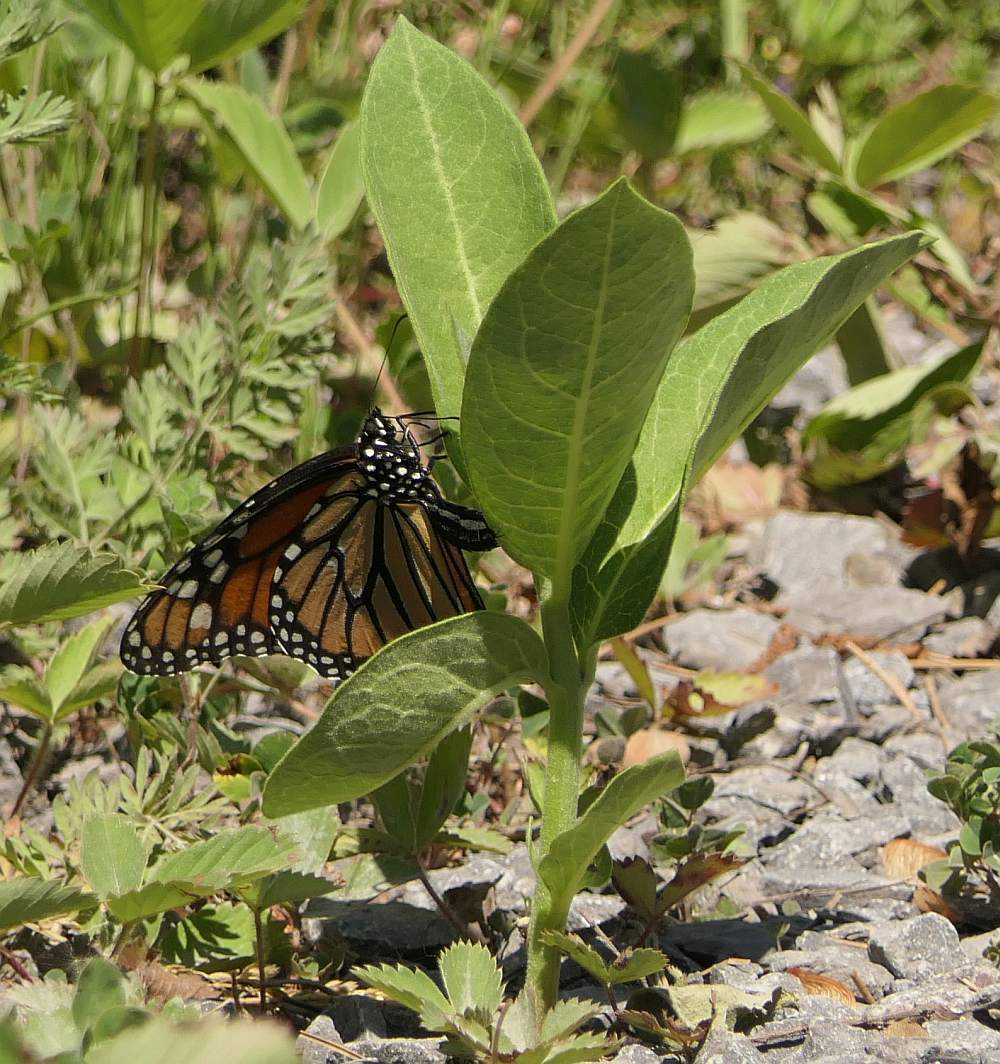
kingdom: Animalia
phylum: Arthropoda
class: Insecta
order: Lepidoptera
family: Nymphalidae
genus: Danaus
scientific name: Danaus plexippus
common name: Monarch
